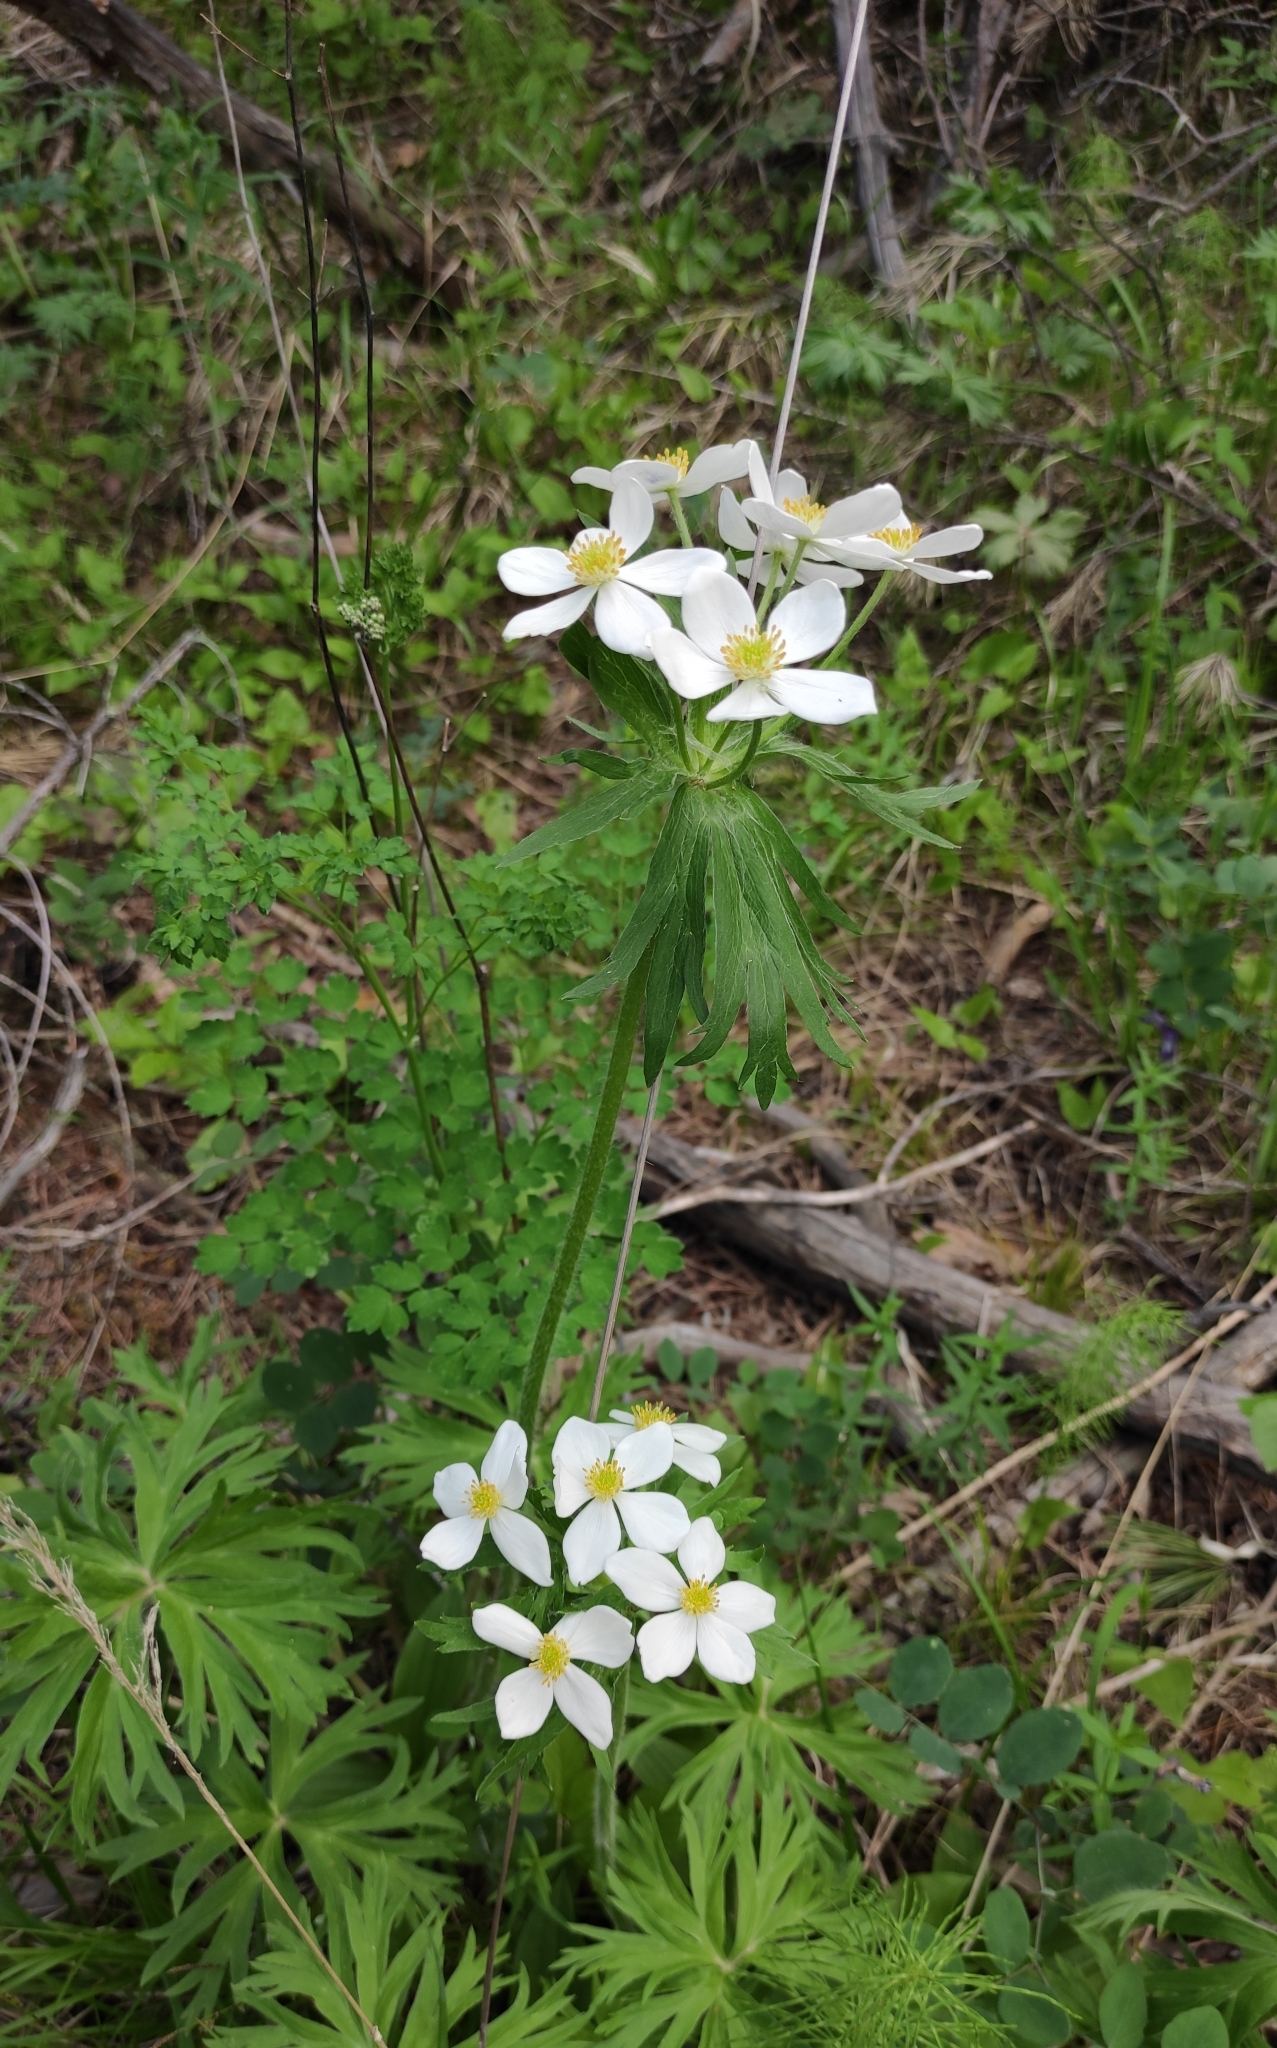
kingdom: Plantae
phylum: Tracheophyta
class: Magnoliopsida
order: Ranunculales
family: Ranunculaceae
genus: Anemonastrum
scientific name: Anemonastrum narcissiflorum
